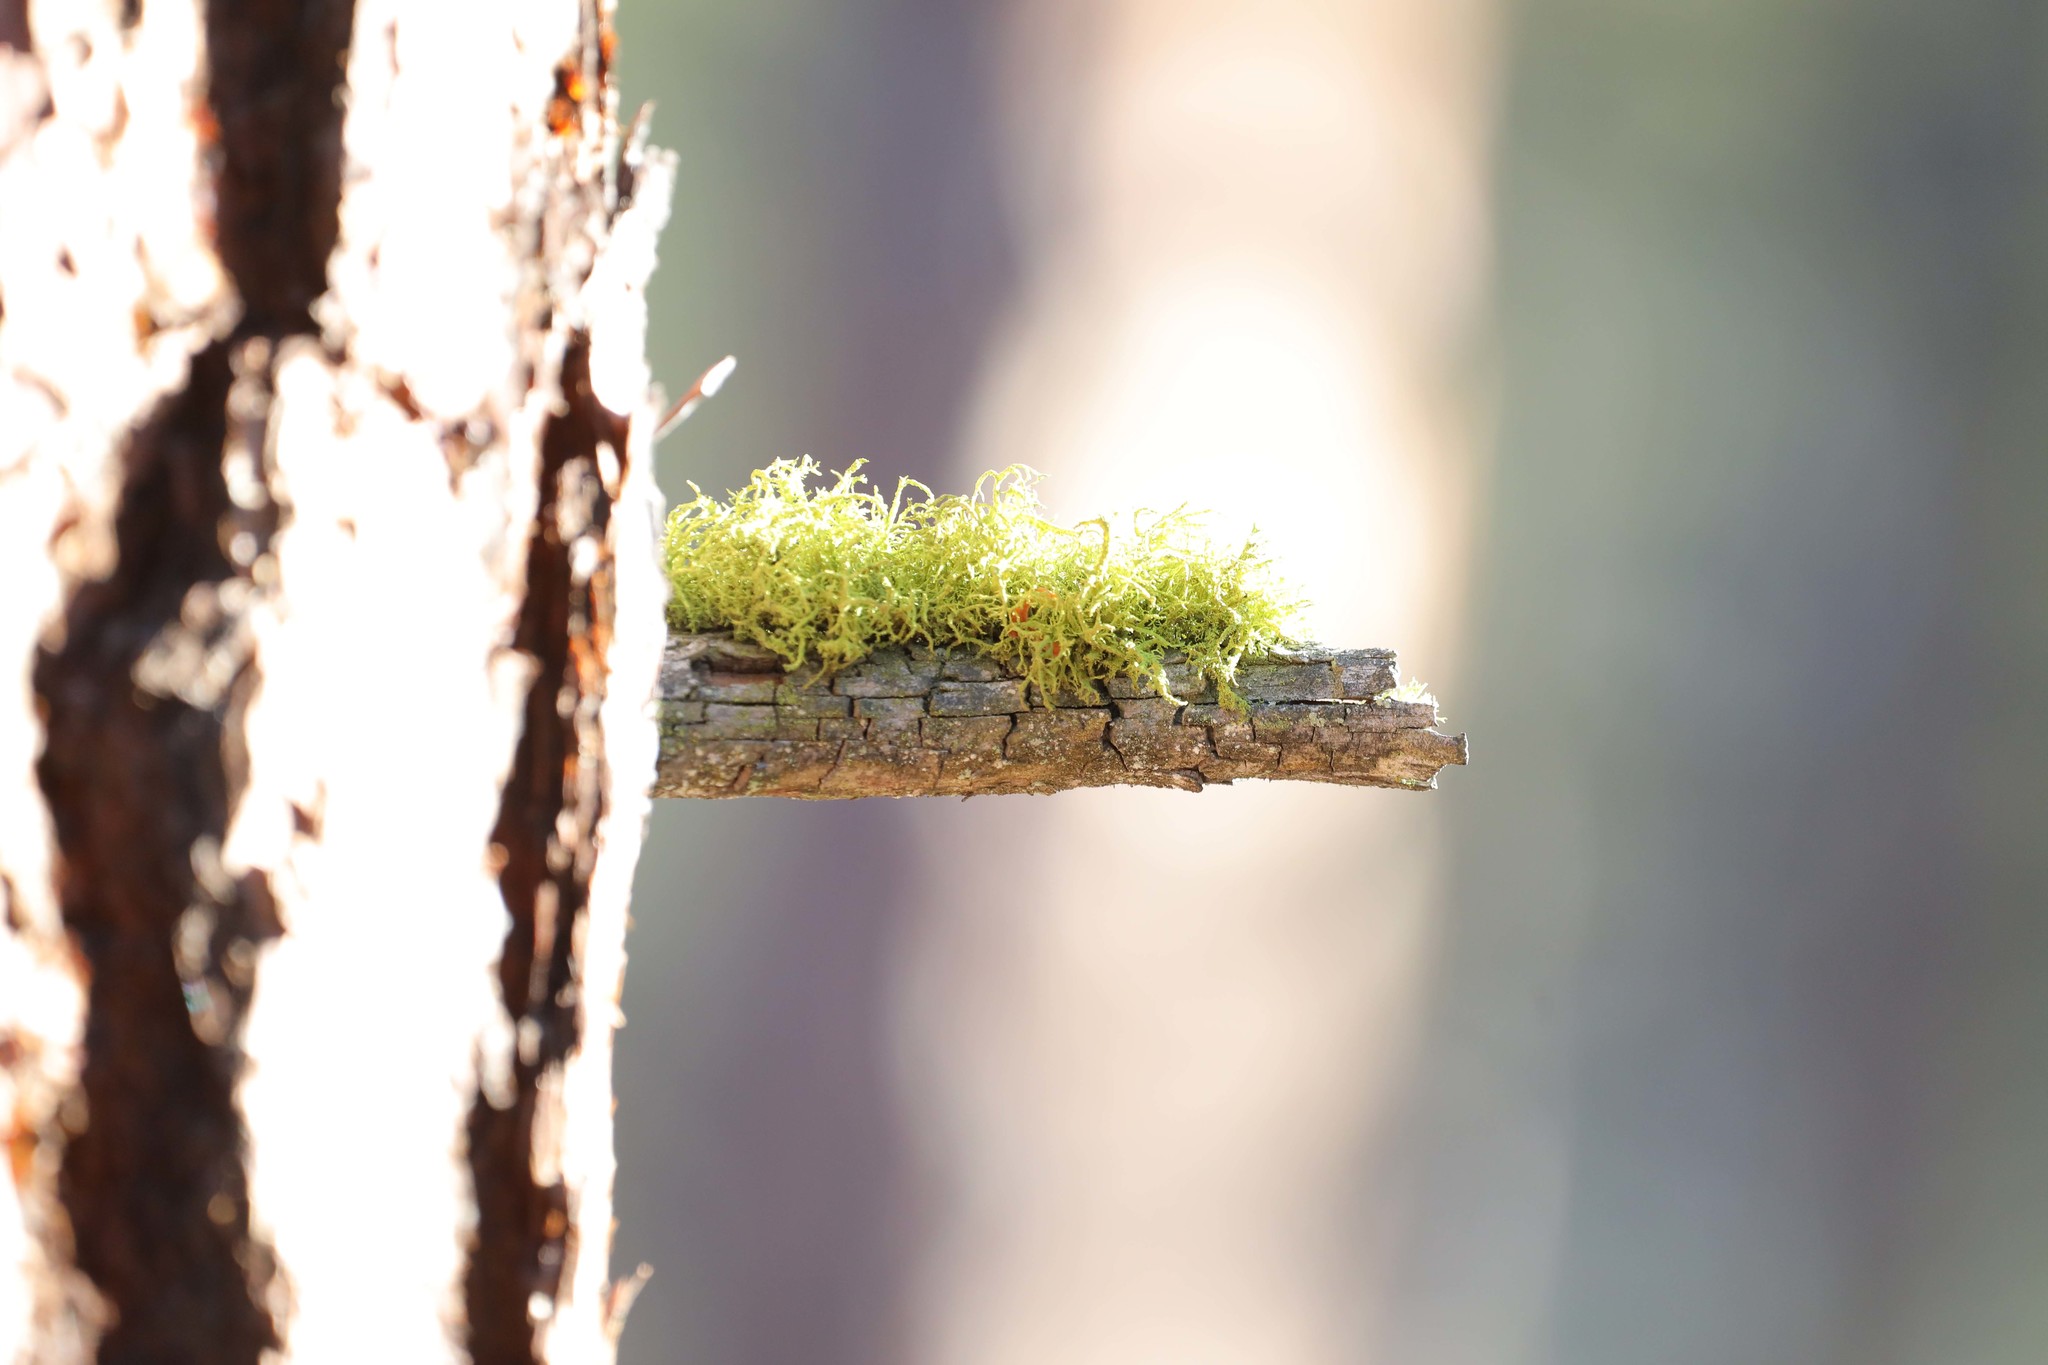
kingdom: Fungi
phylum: Ascomycota
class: Lecanoromycetes
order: Lecanorales
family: Parmeliaceae
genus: Letharia
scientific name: Letharia vulpina
